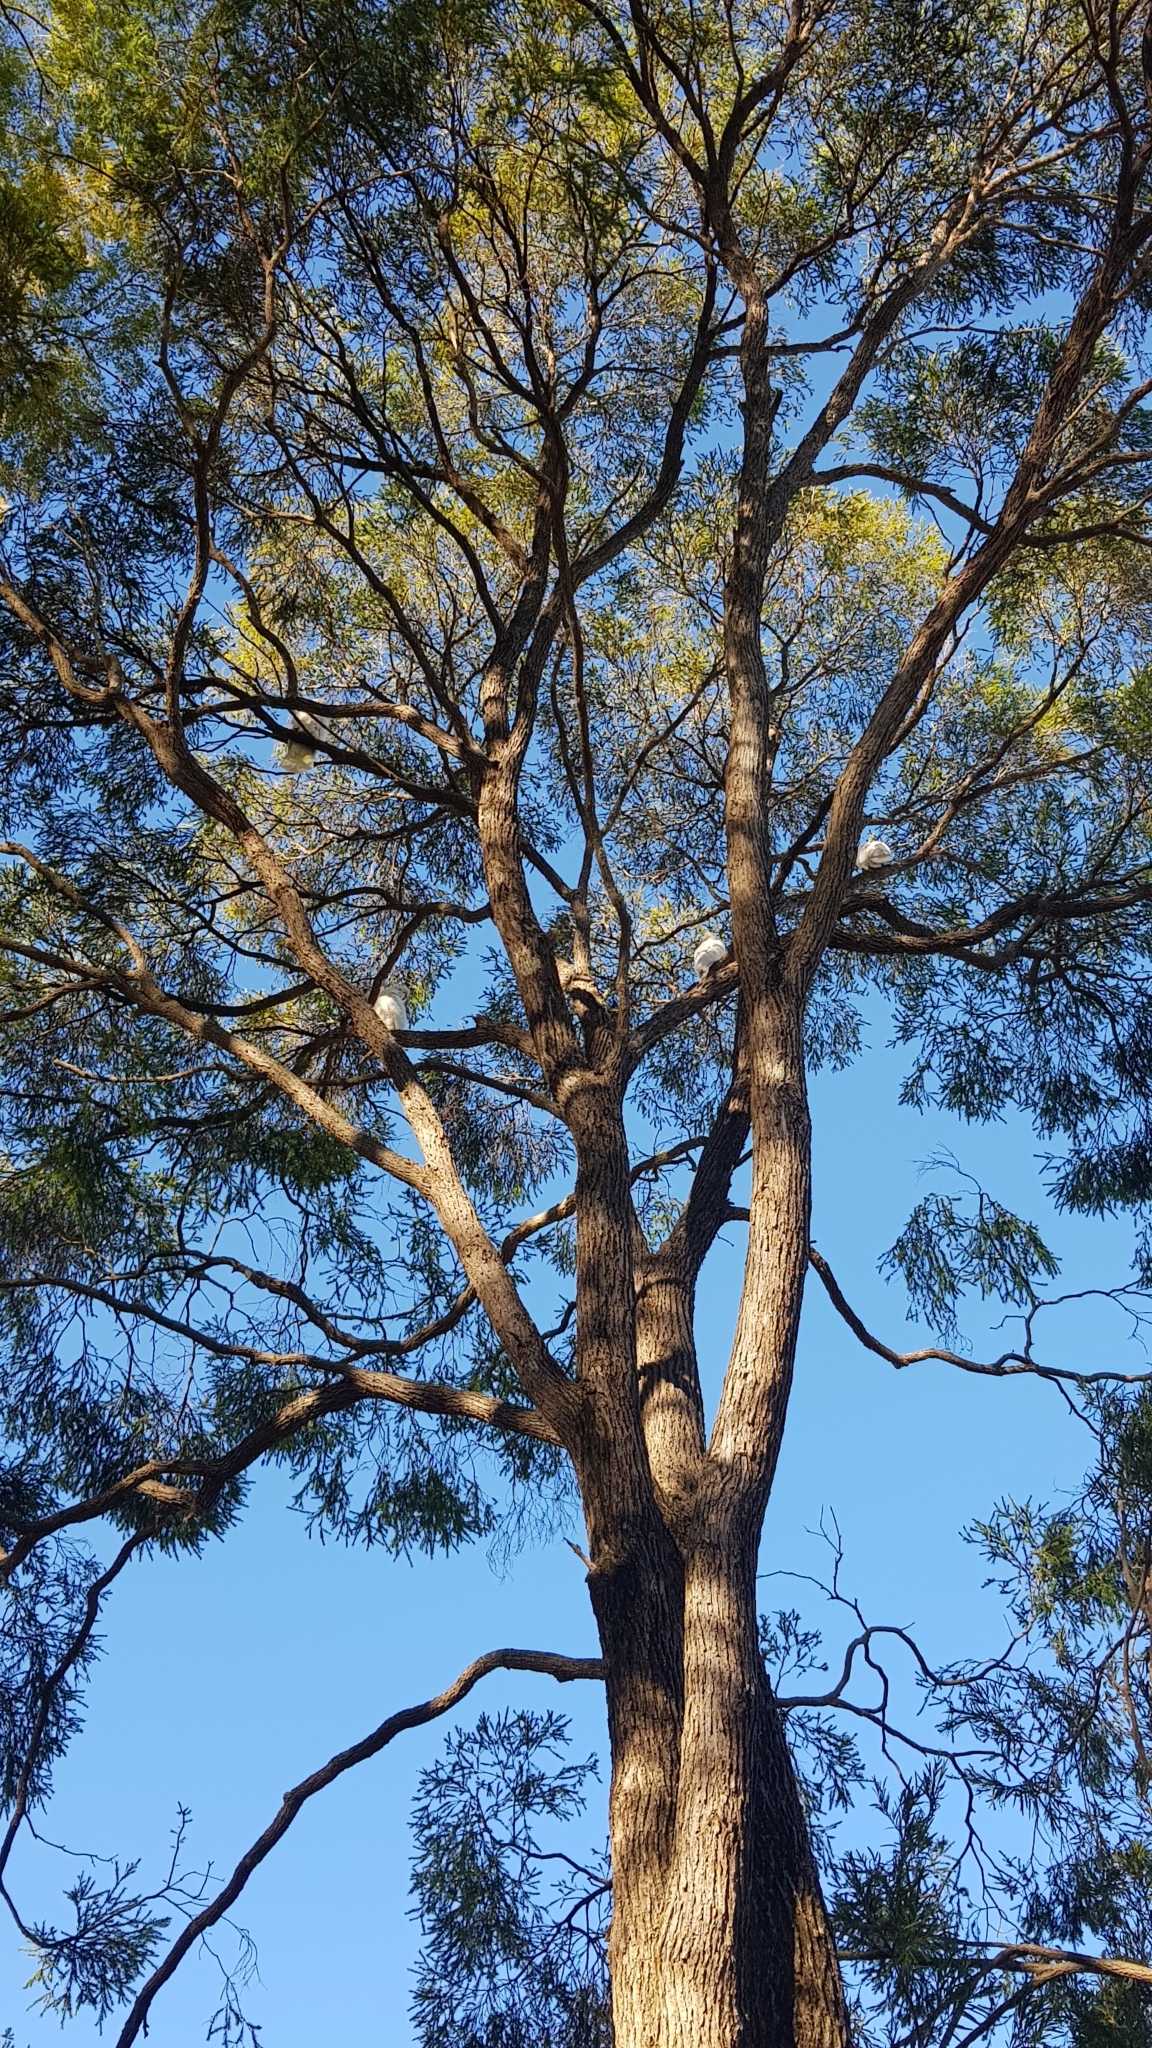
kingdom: Animalia
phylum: Chordata
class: Aves
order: Psittaciformes
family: Psittacidae
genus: Cacatua
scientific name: Cacatua galerita
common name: Sulphur-crested cockatoo
